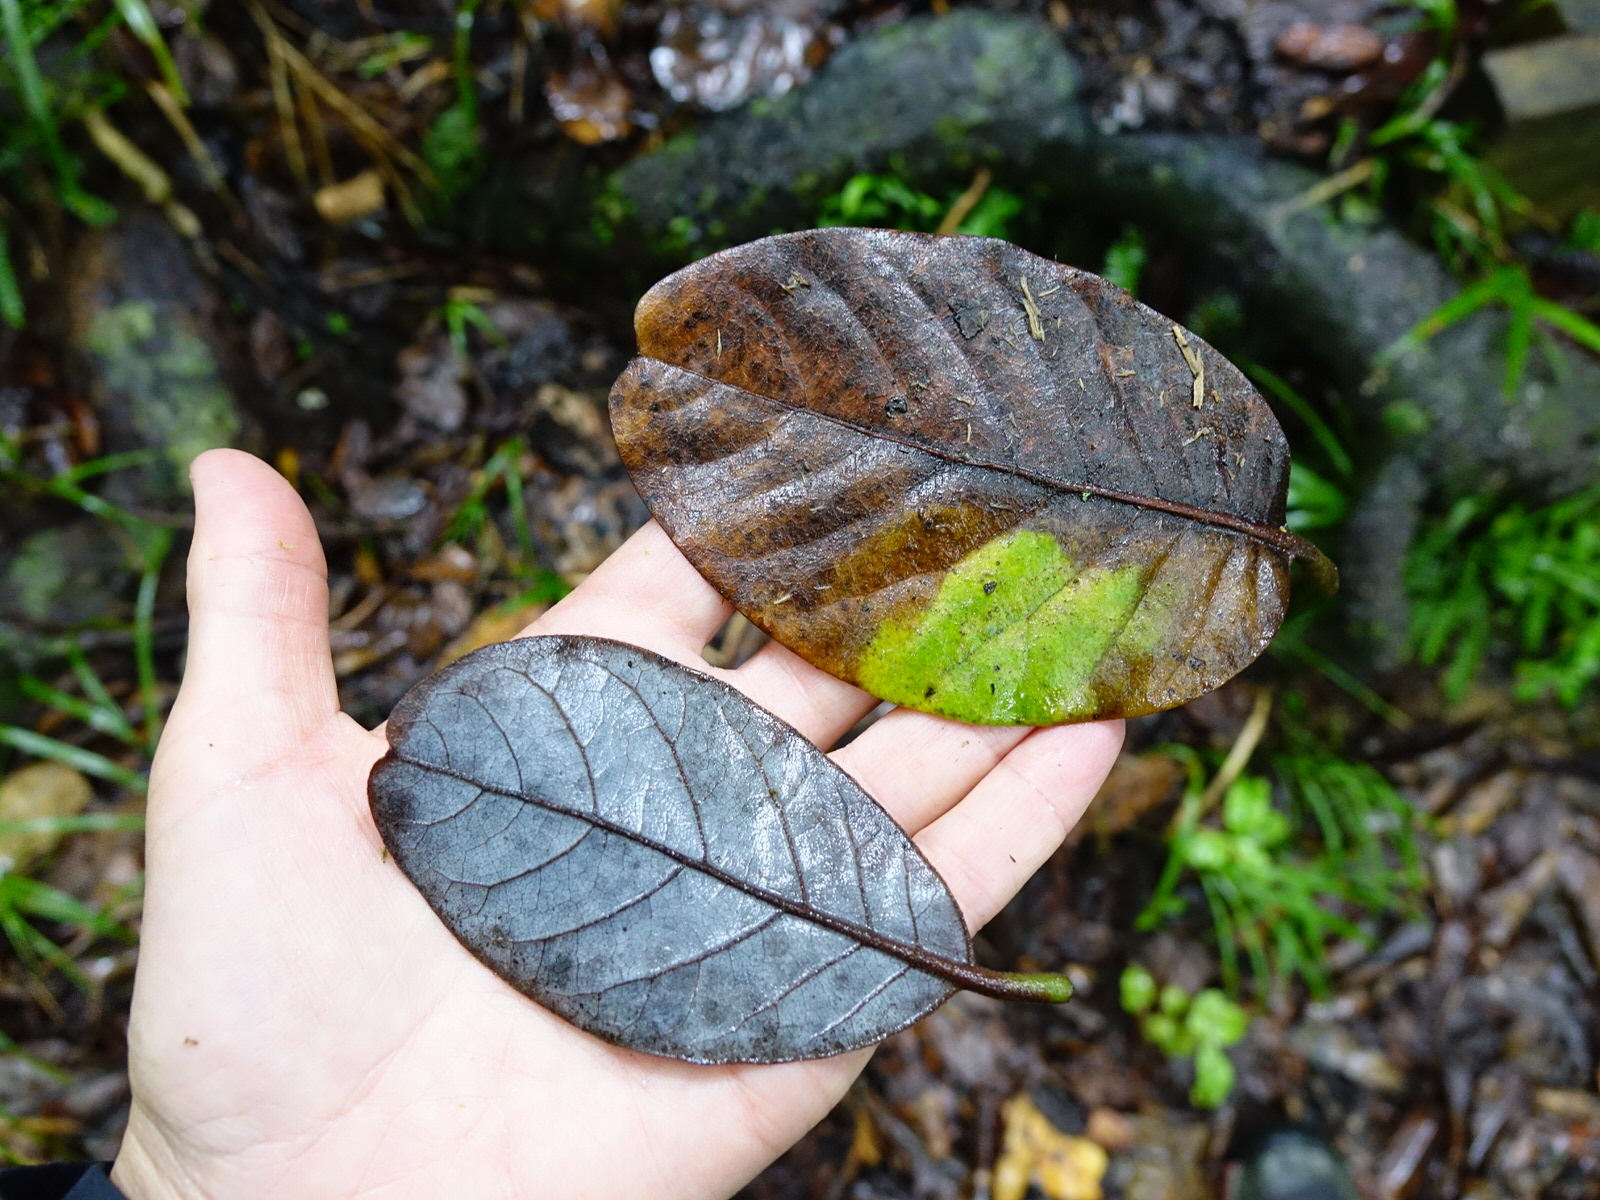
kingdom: Plantae
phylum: Tracheophyta
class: Magnoliopsida
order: Laurales
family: Lauraceae
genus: Beilschmiedia
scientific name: Beilschmiedia tarairi
